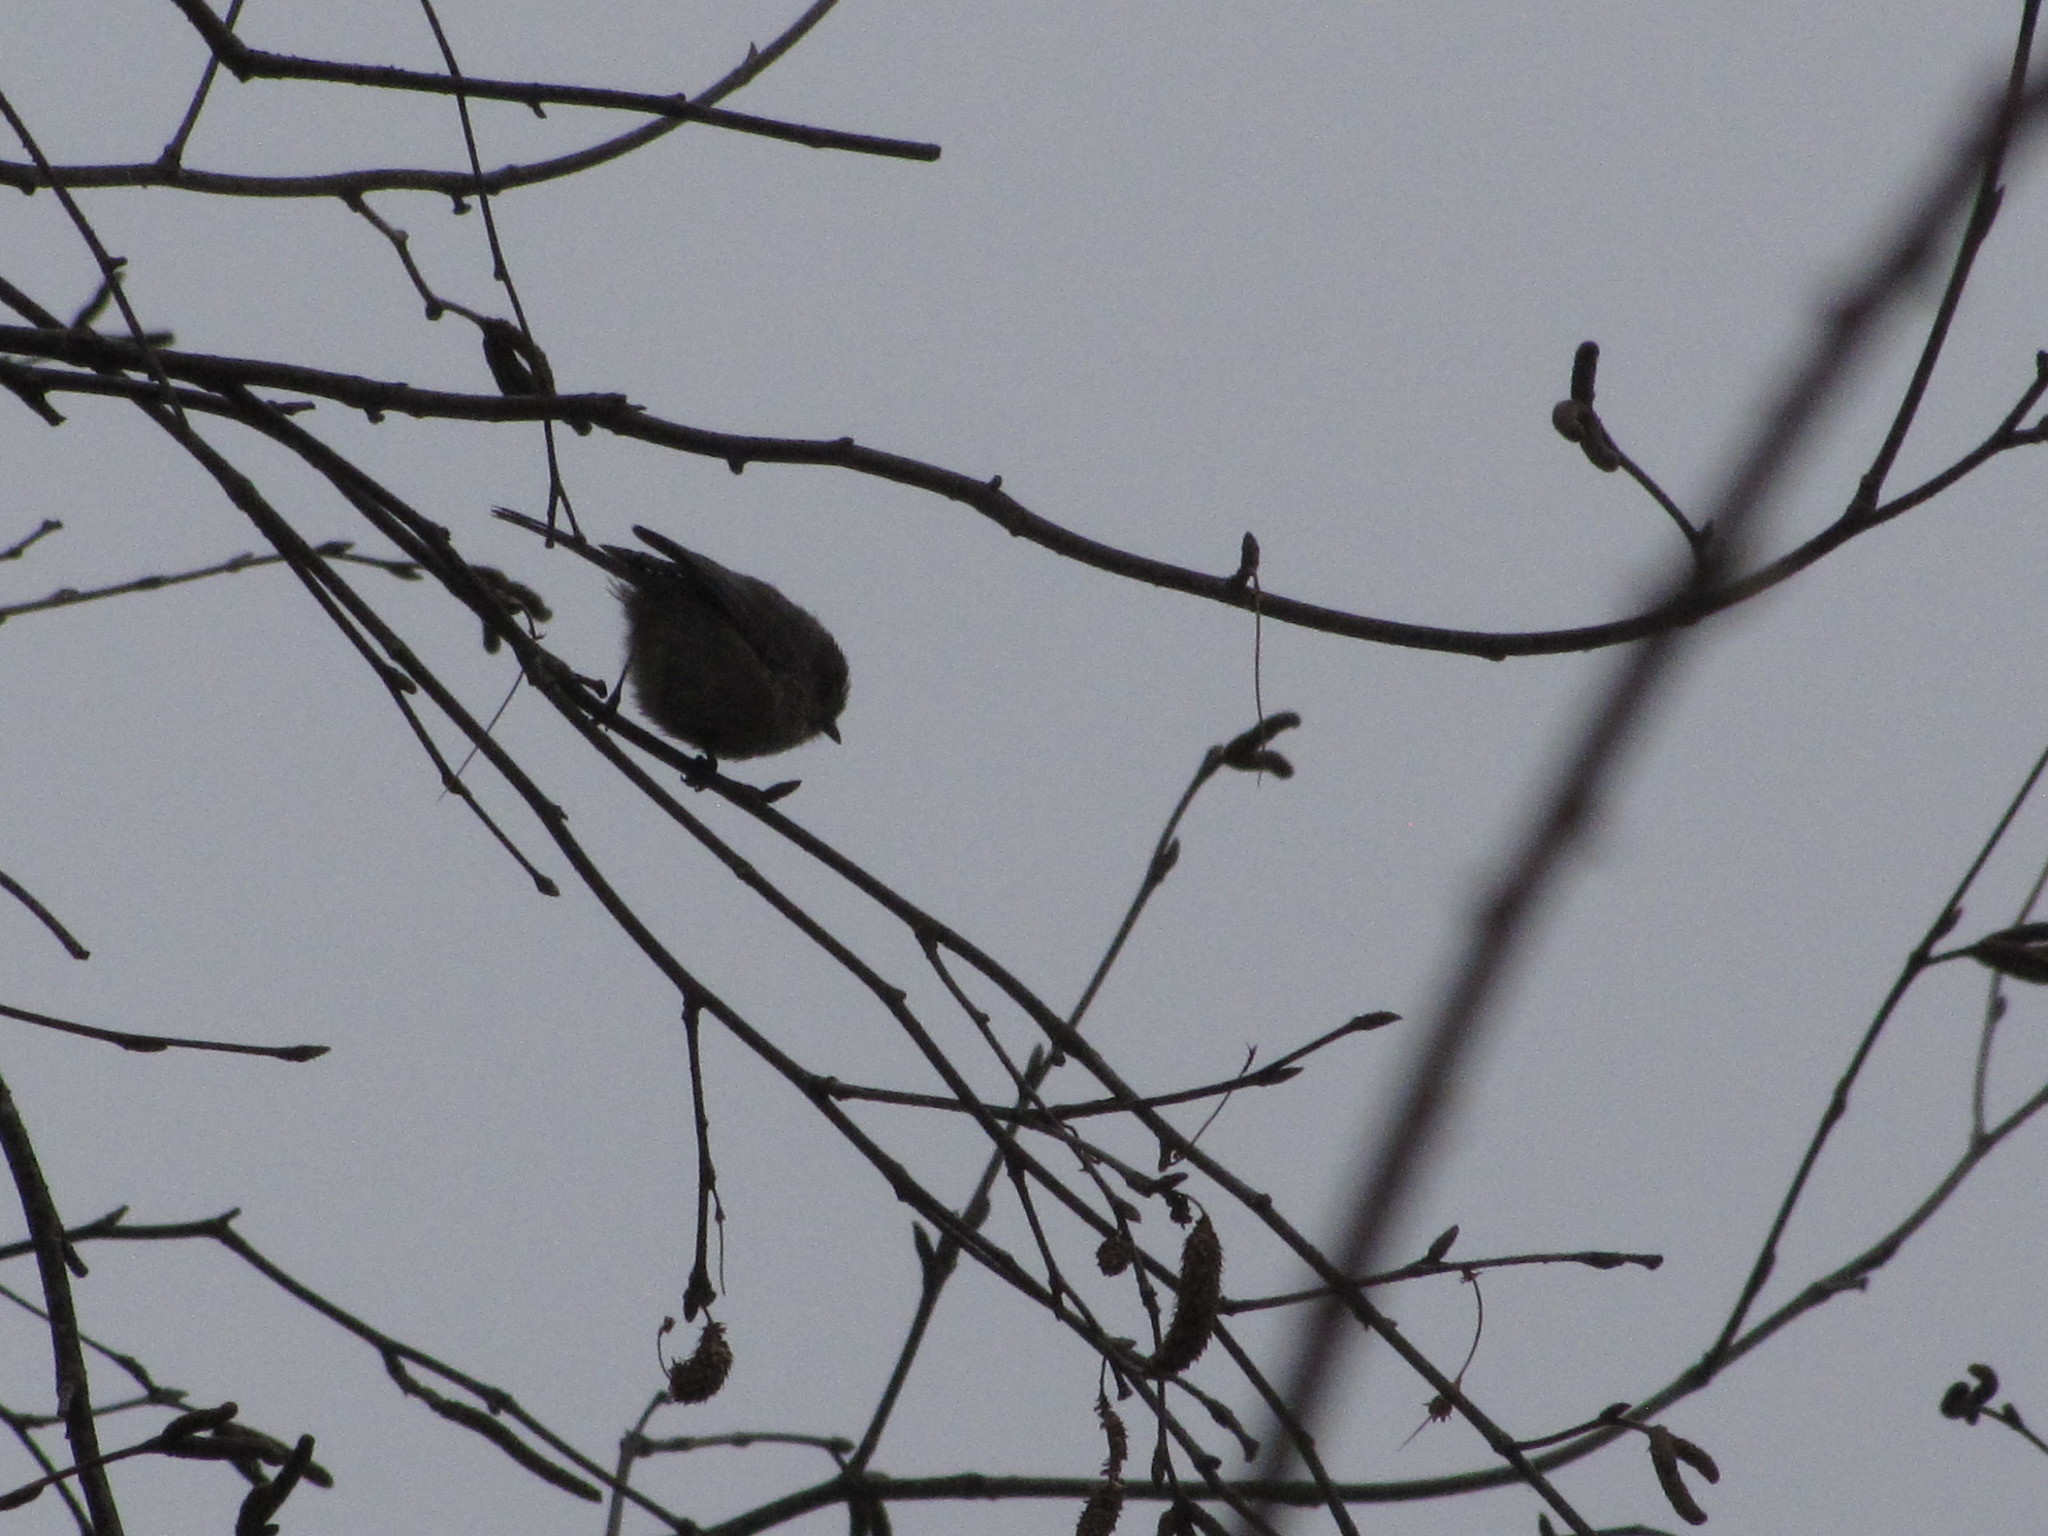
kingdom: Animalia
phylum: Chordata
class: Aves
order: Passeriformes
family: Aegithalidae
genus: Psaltriparus
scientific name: Psaltriparus minimus
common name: American bushtit
